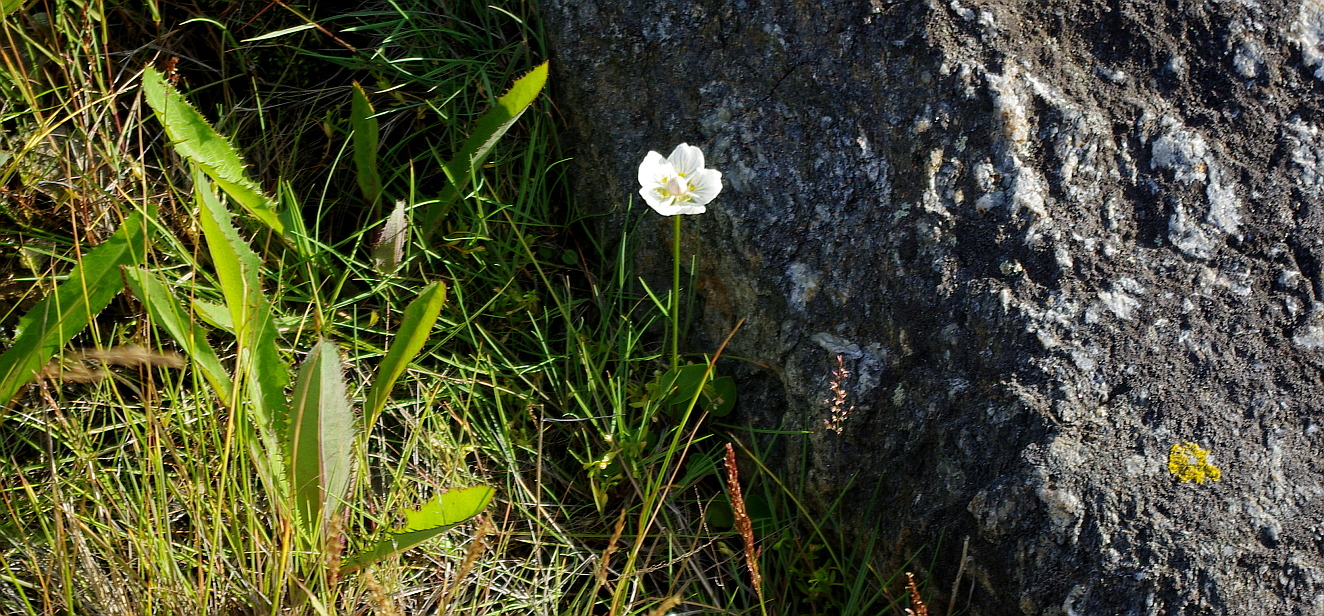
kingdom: Plantae
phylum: Tracheophyta
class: Magnoliopsida
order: Celastrales
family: Parnassiaceae
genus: Parnassia
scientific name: Parnassia palustris
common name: Grass-of-parnassus
